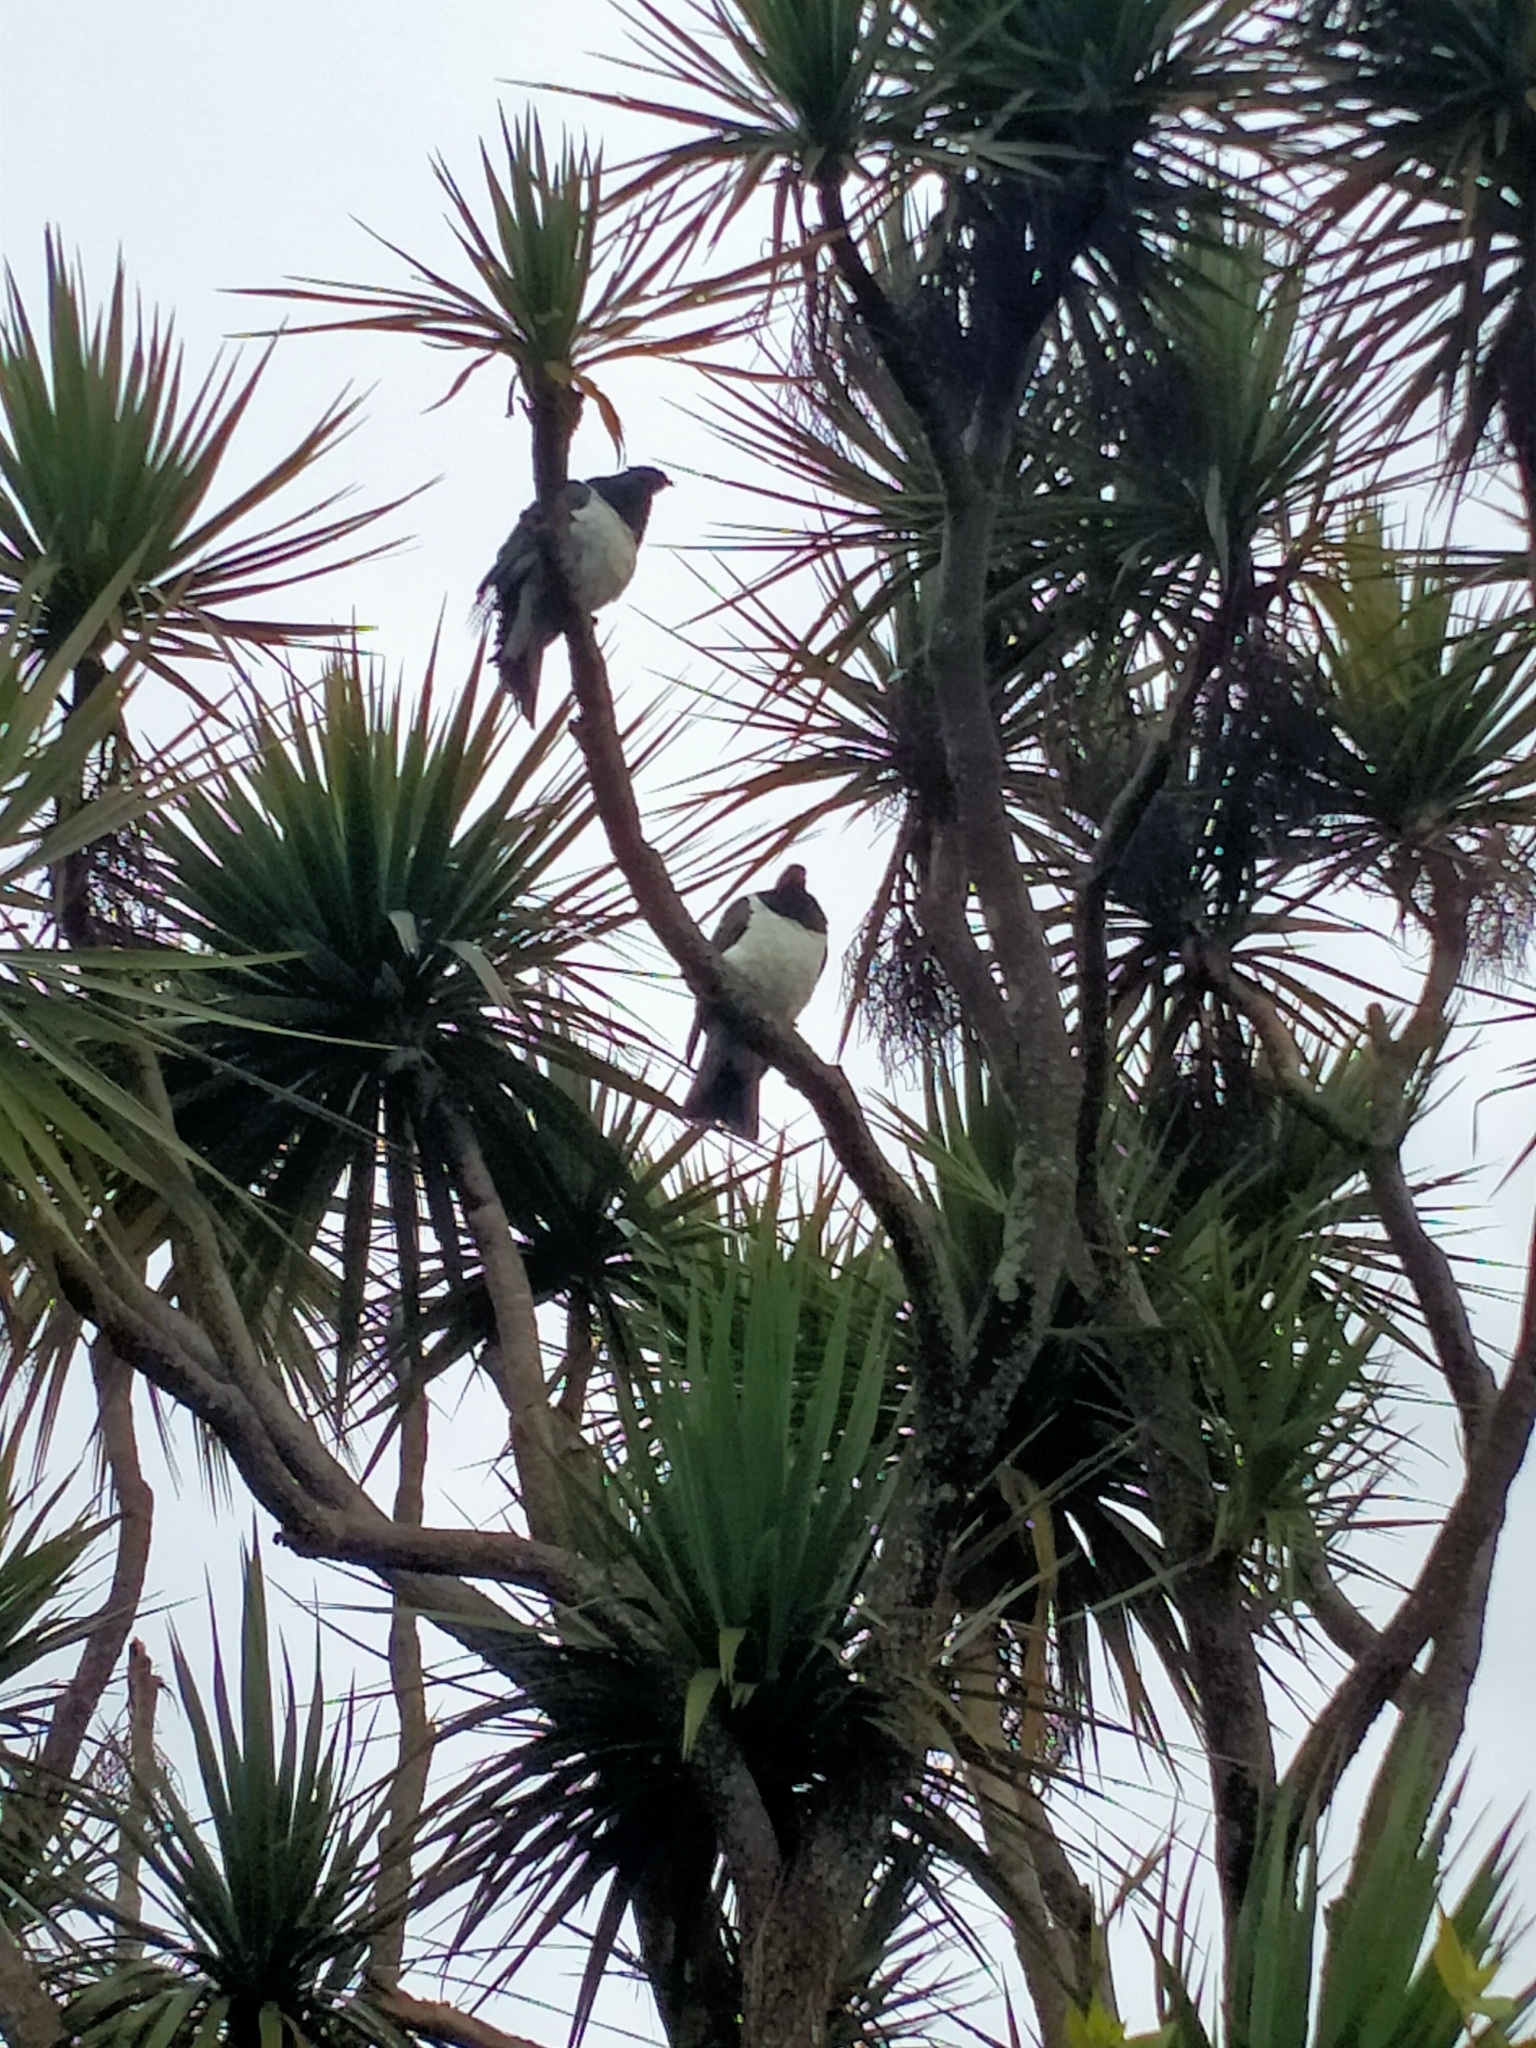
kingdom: Animalia
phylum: Chordata
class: Aves
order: Columbiformes
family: Columbidae
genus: Hemiphaga
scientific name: Hemiphaga novaeseelandiae
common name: New zealand pigeon
